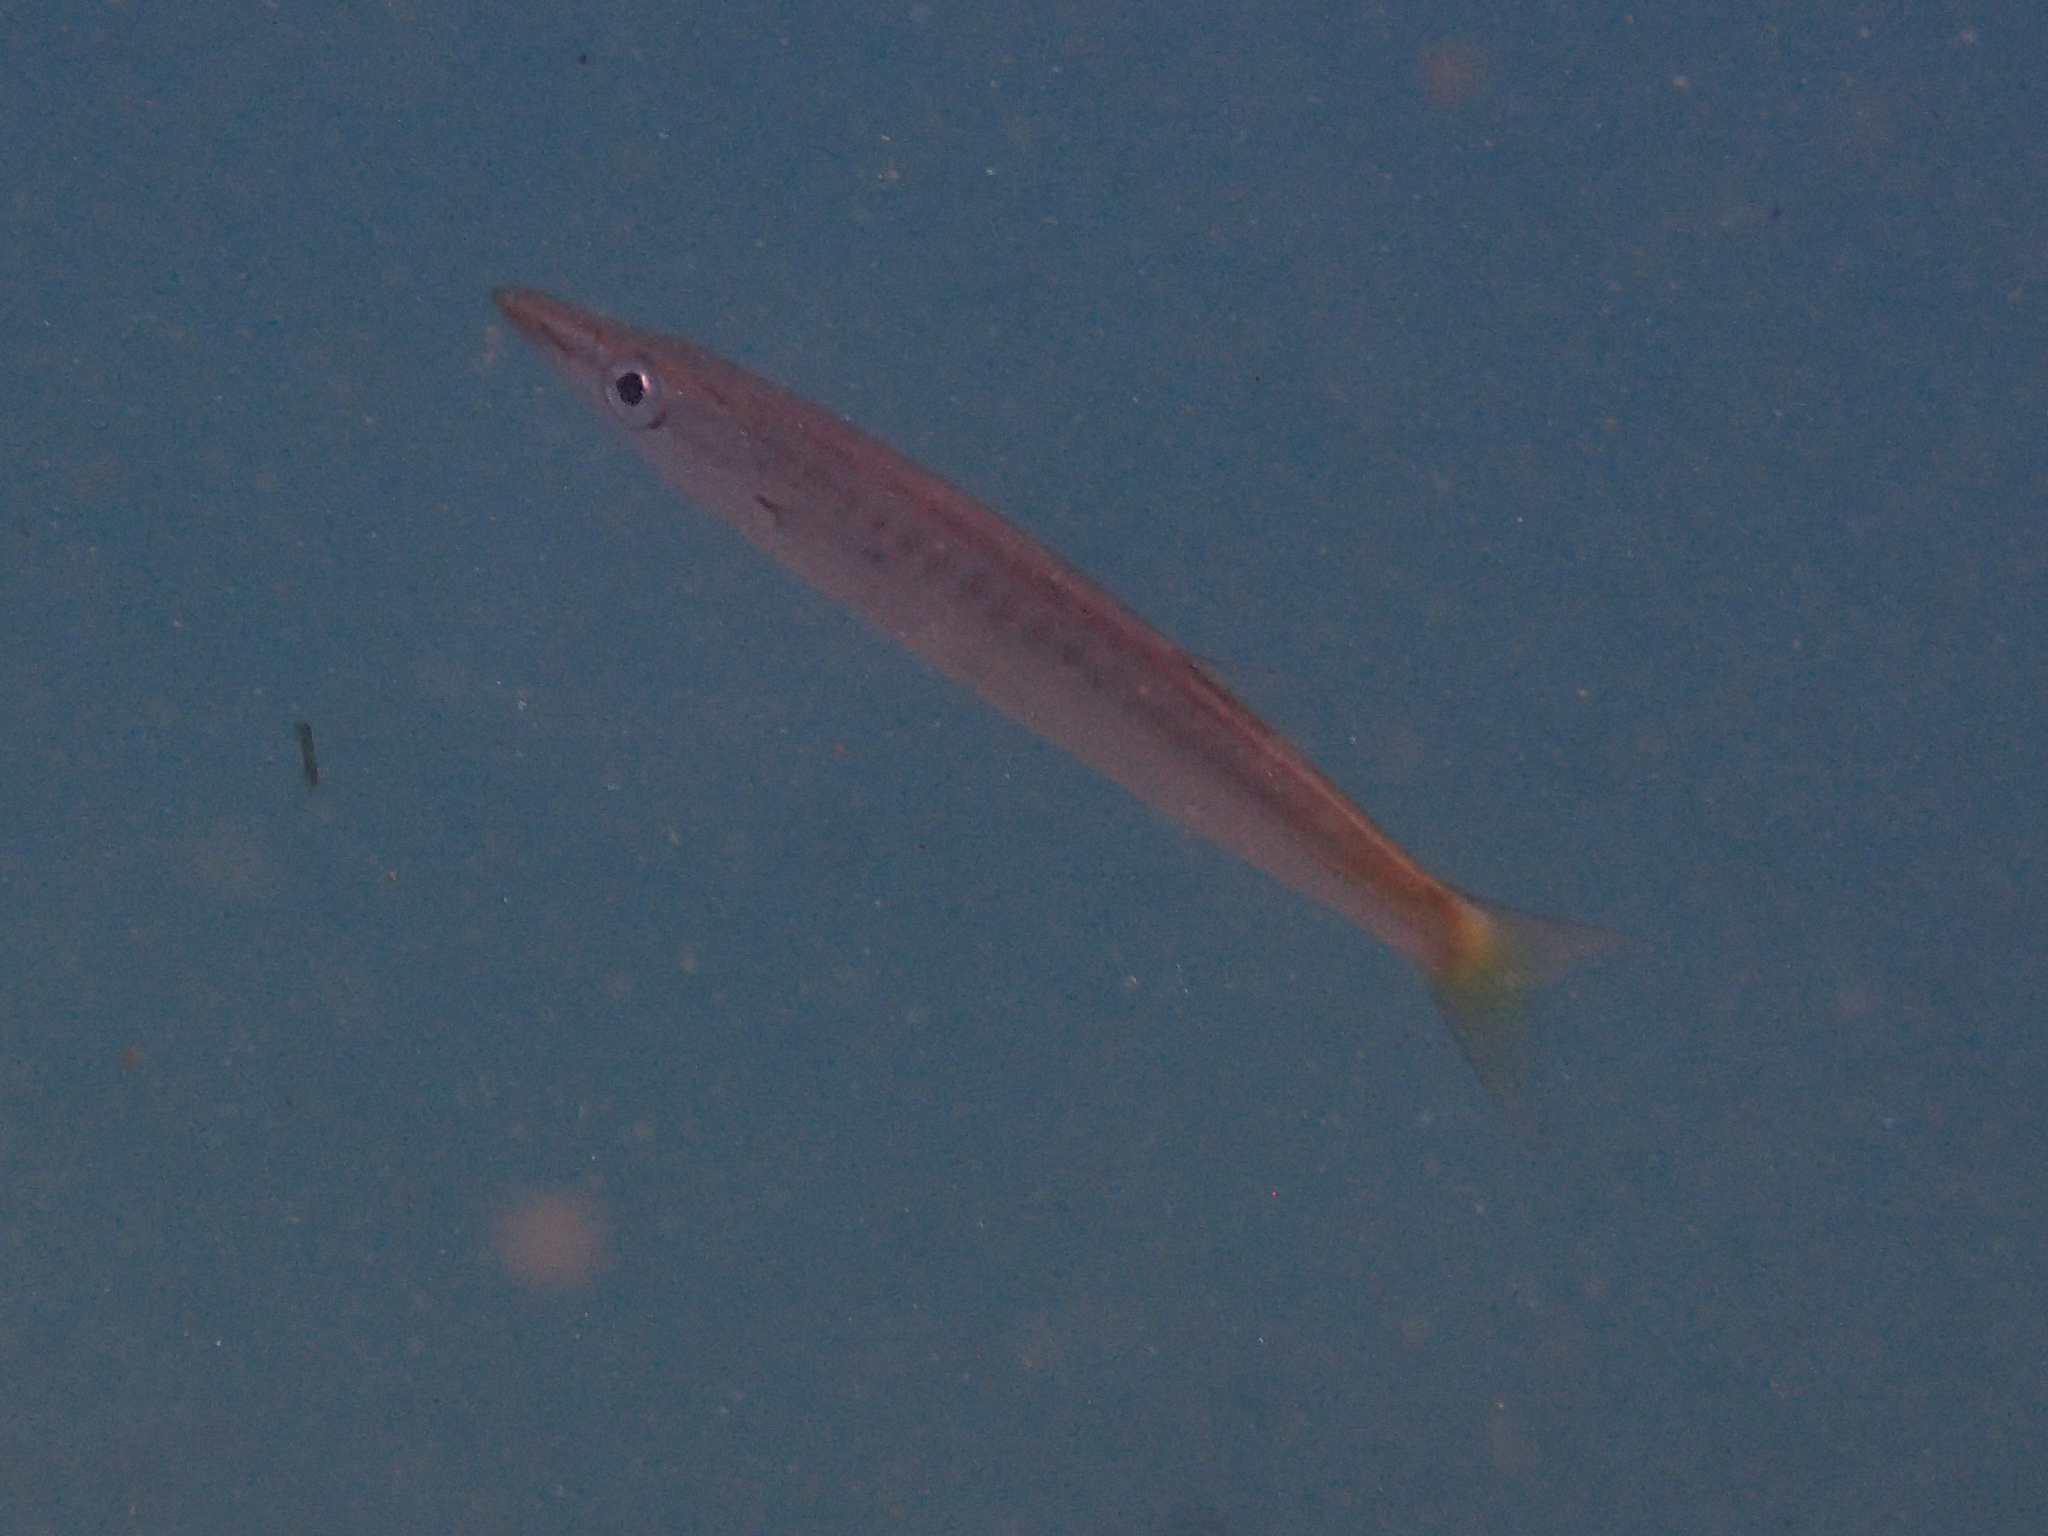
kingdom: Animalia
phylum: Chordata
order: Perciformes
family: Sphyraenidae
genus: Sphyraena
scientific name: Sphyraena obtusata
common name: Obtuse barracuda
